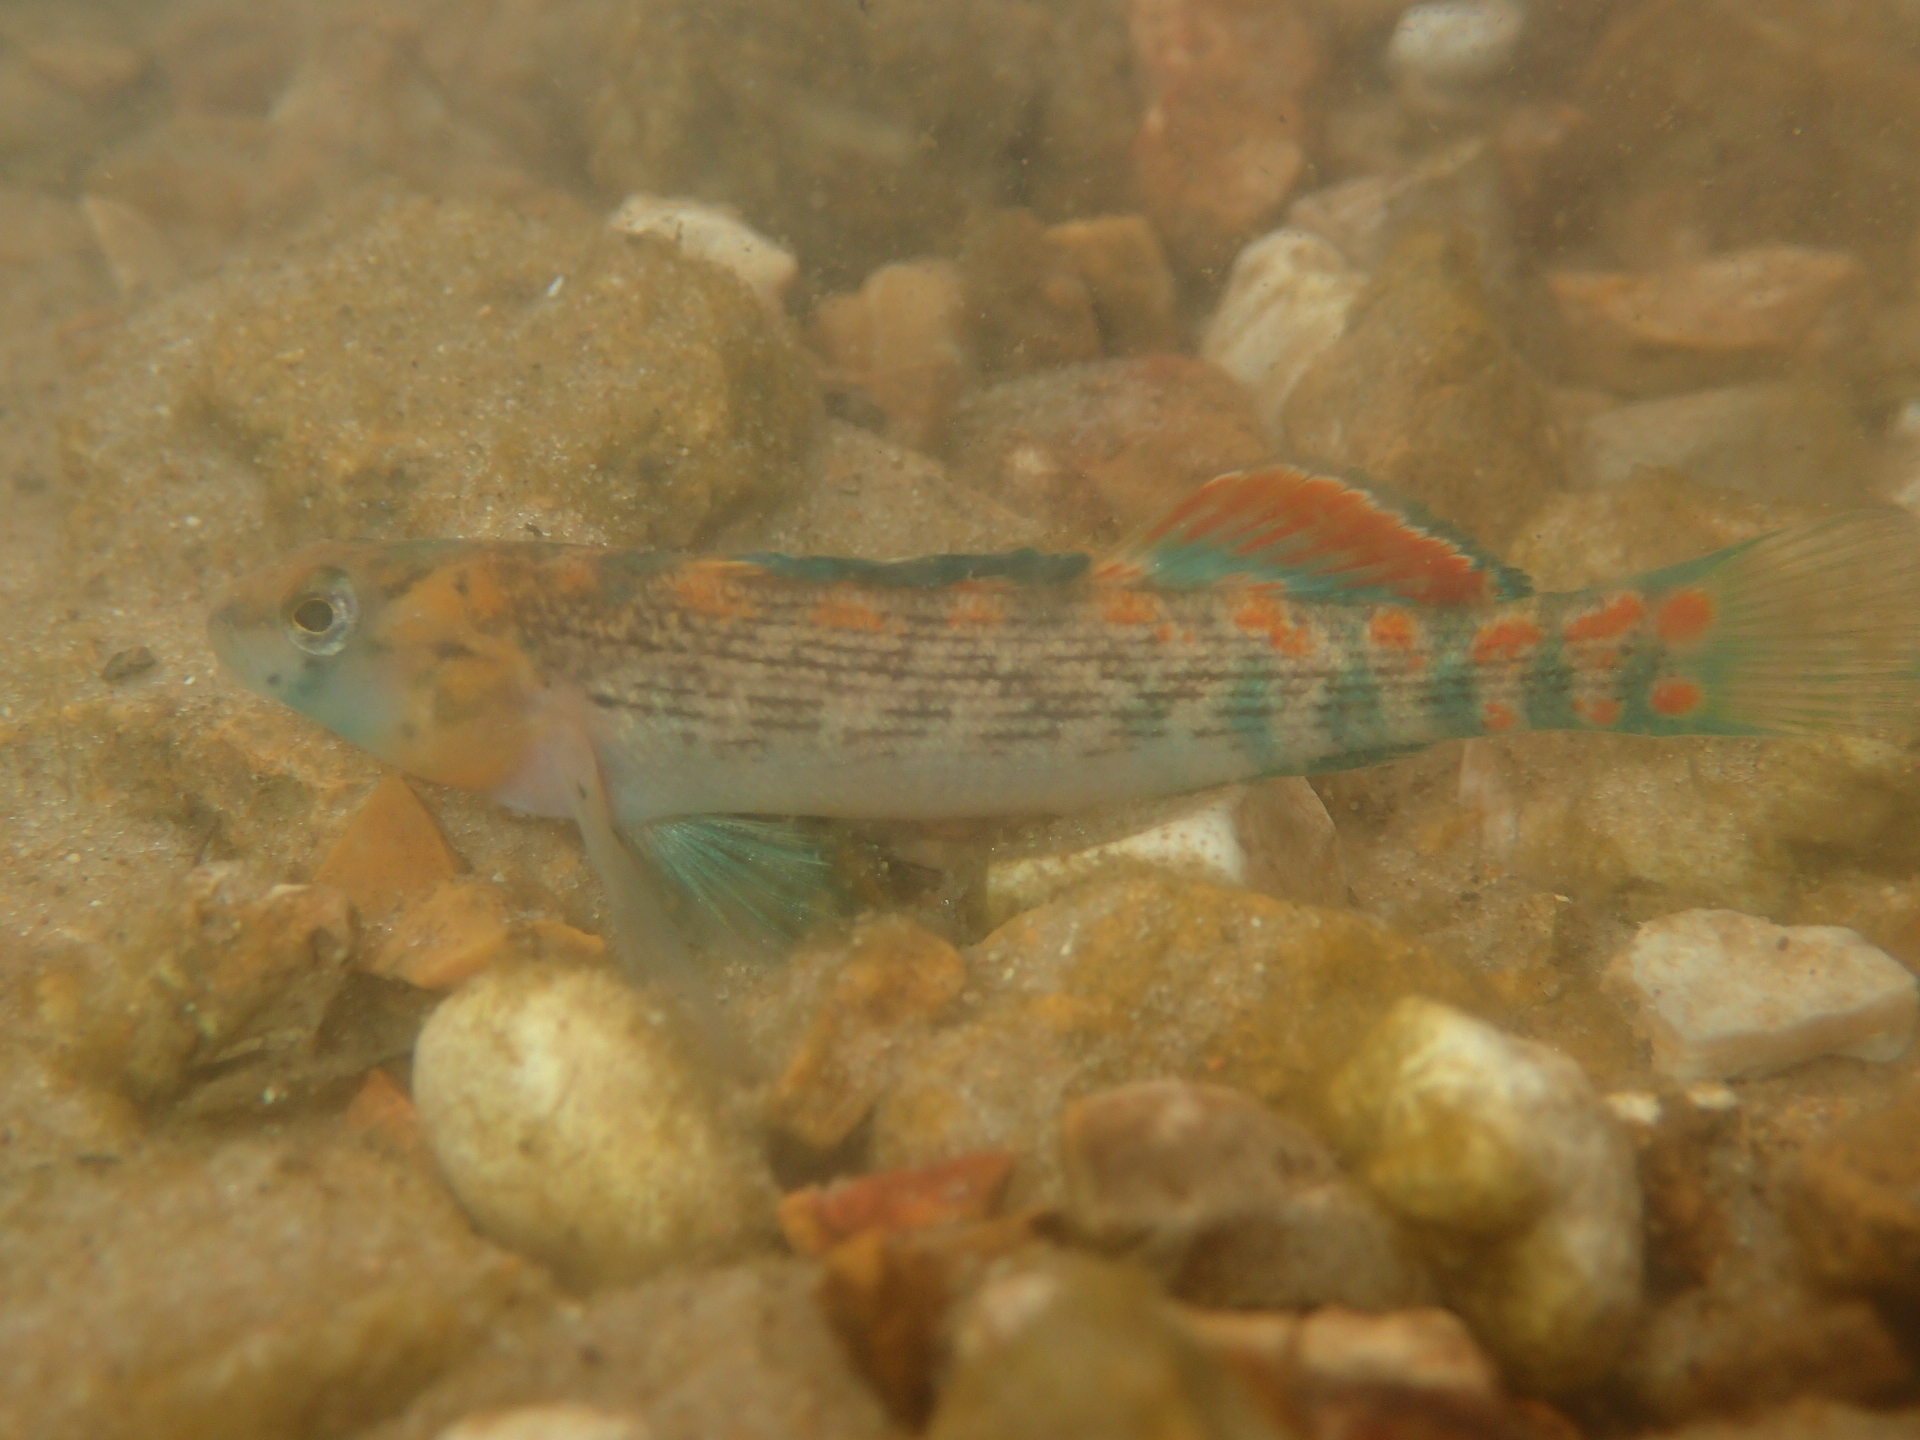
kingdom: Animalia
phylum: Chordata
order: Perciformes
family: Percidae
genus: Etheostoma
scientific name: Etheostoma spectabile
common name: Orangethroat darter
